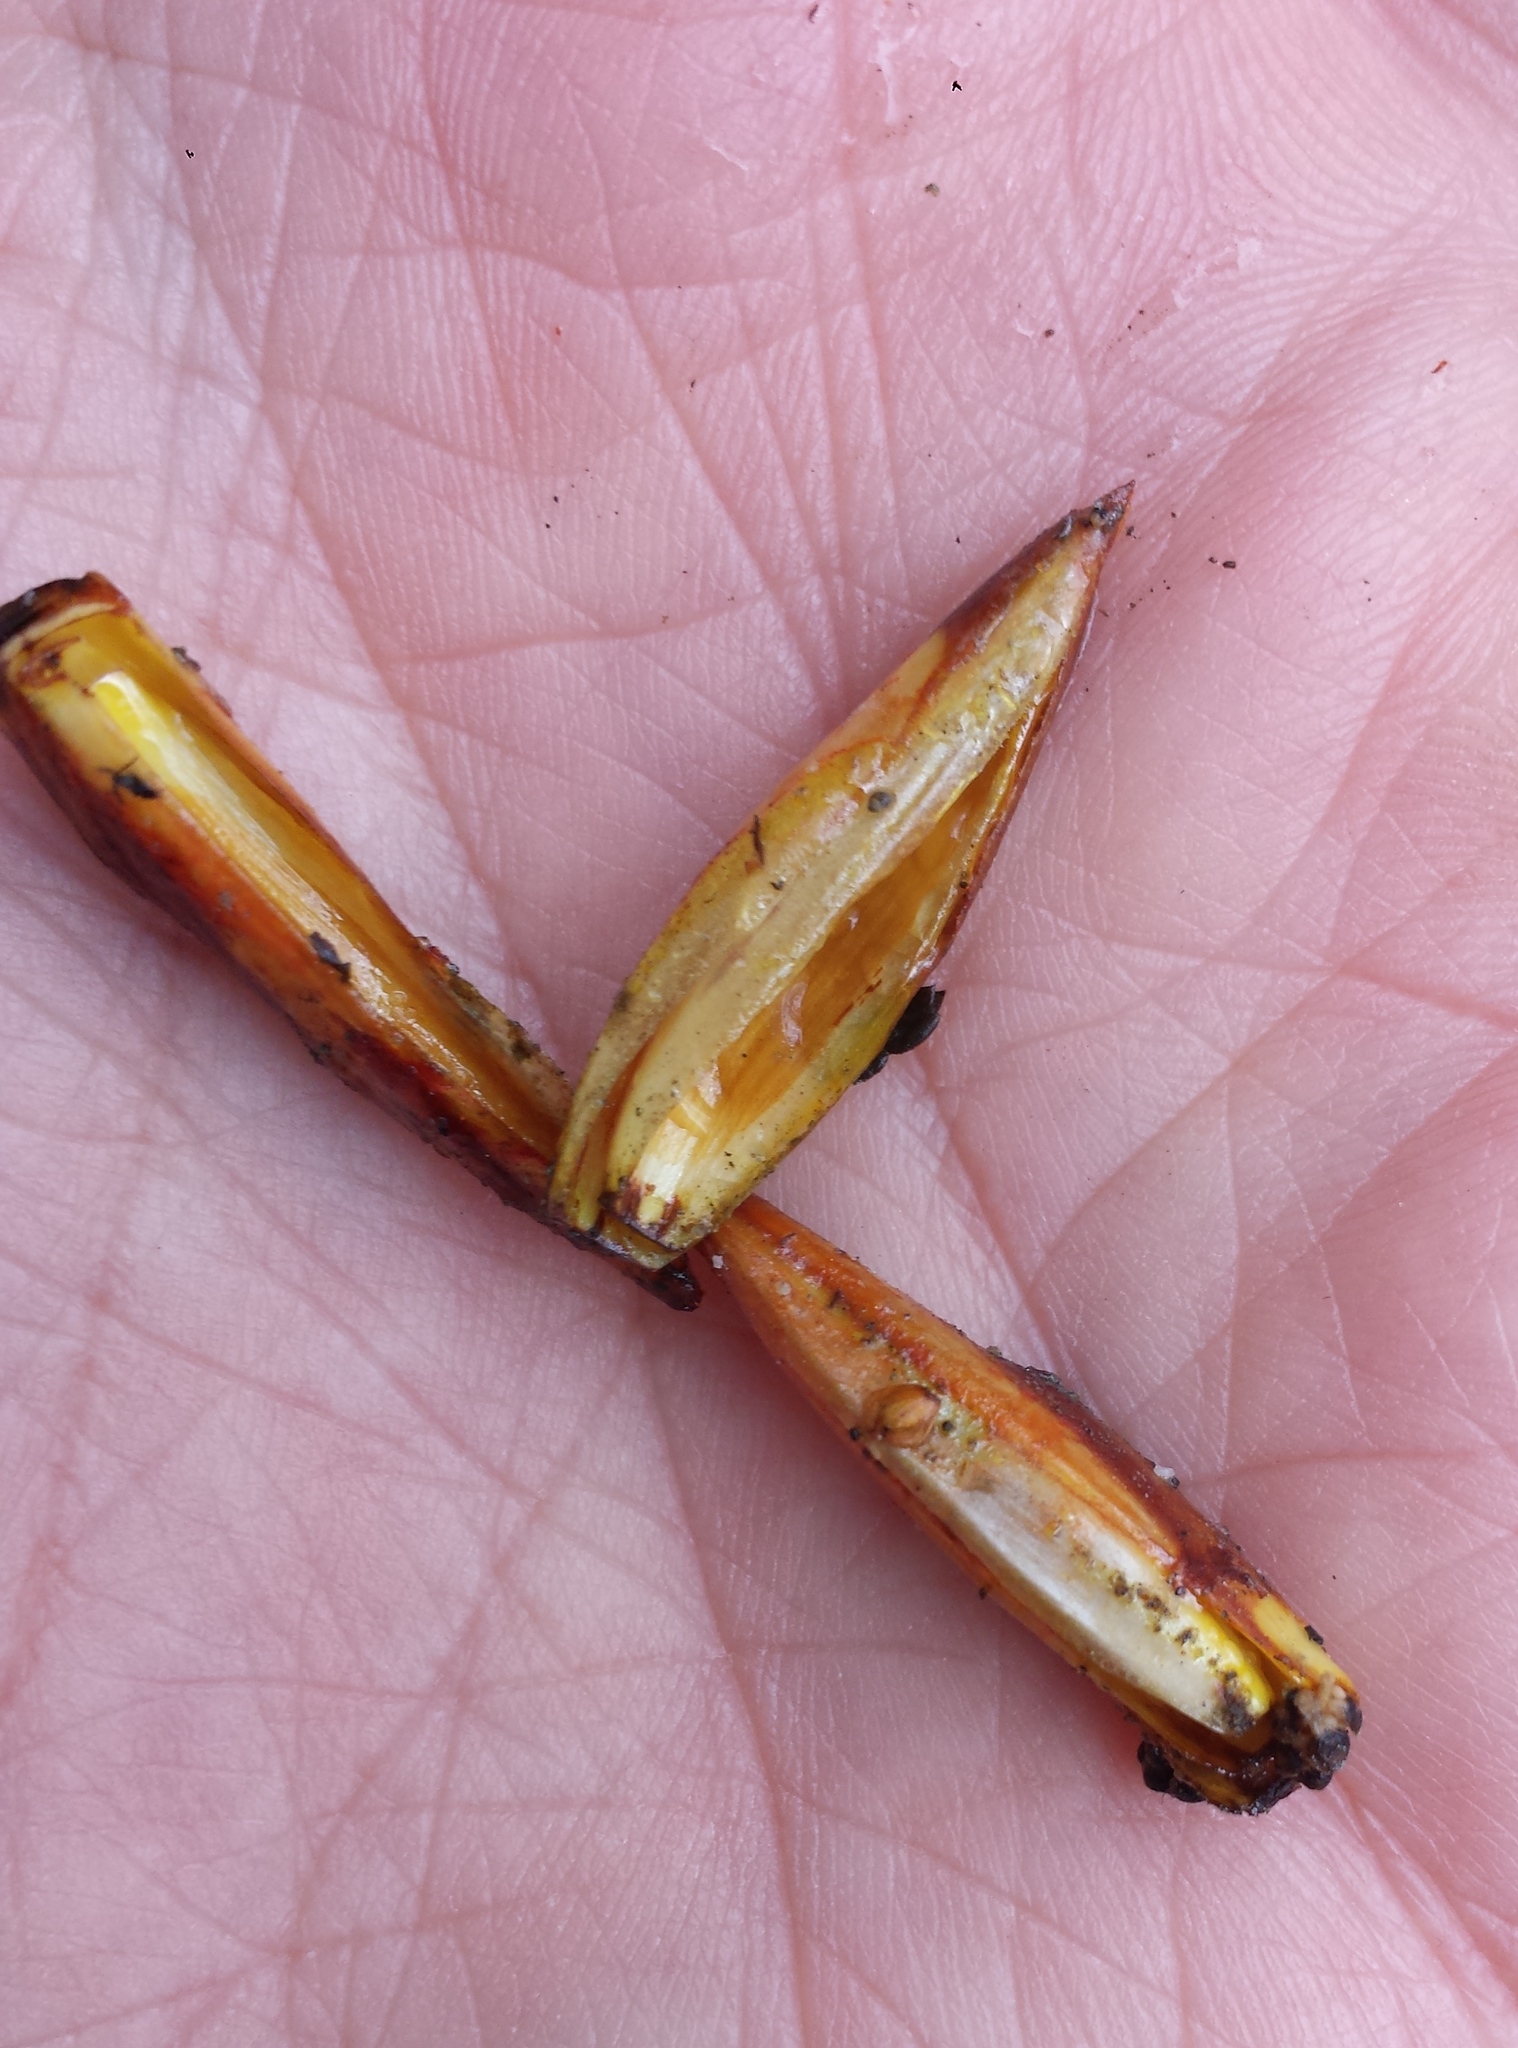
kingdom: Plantae
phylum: Tracheophyta
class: Magnoliopsida
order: Malpighiales
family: Salicaceae
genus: Populus
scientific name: Populus trichocarpa
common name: Black cottonwood
